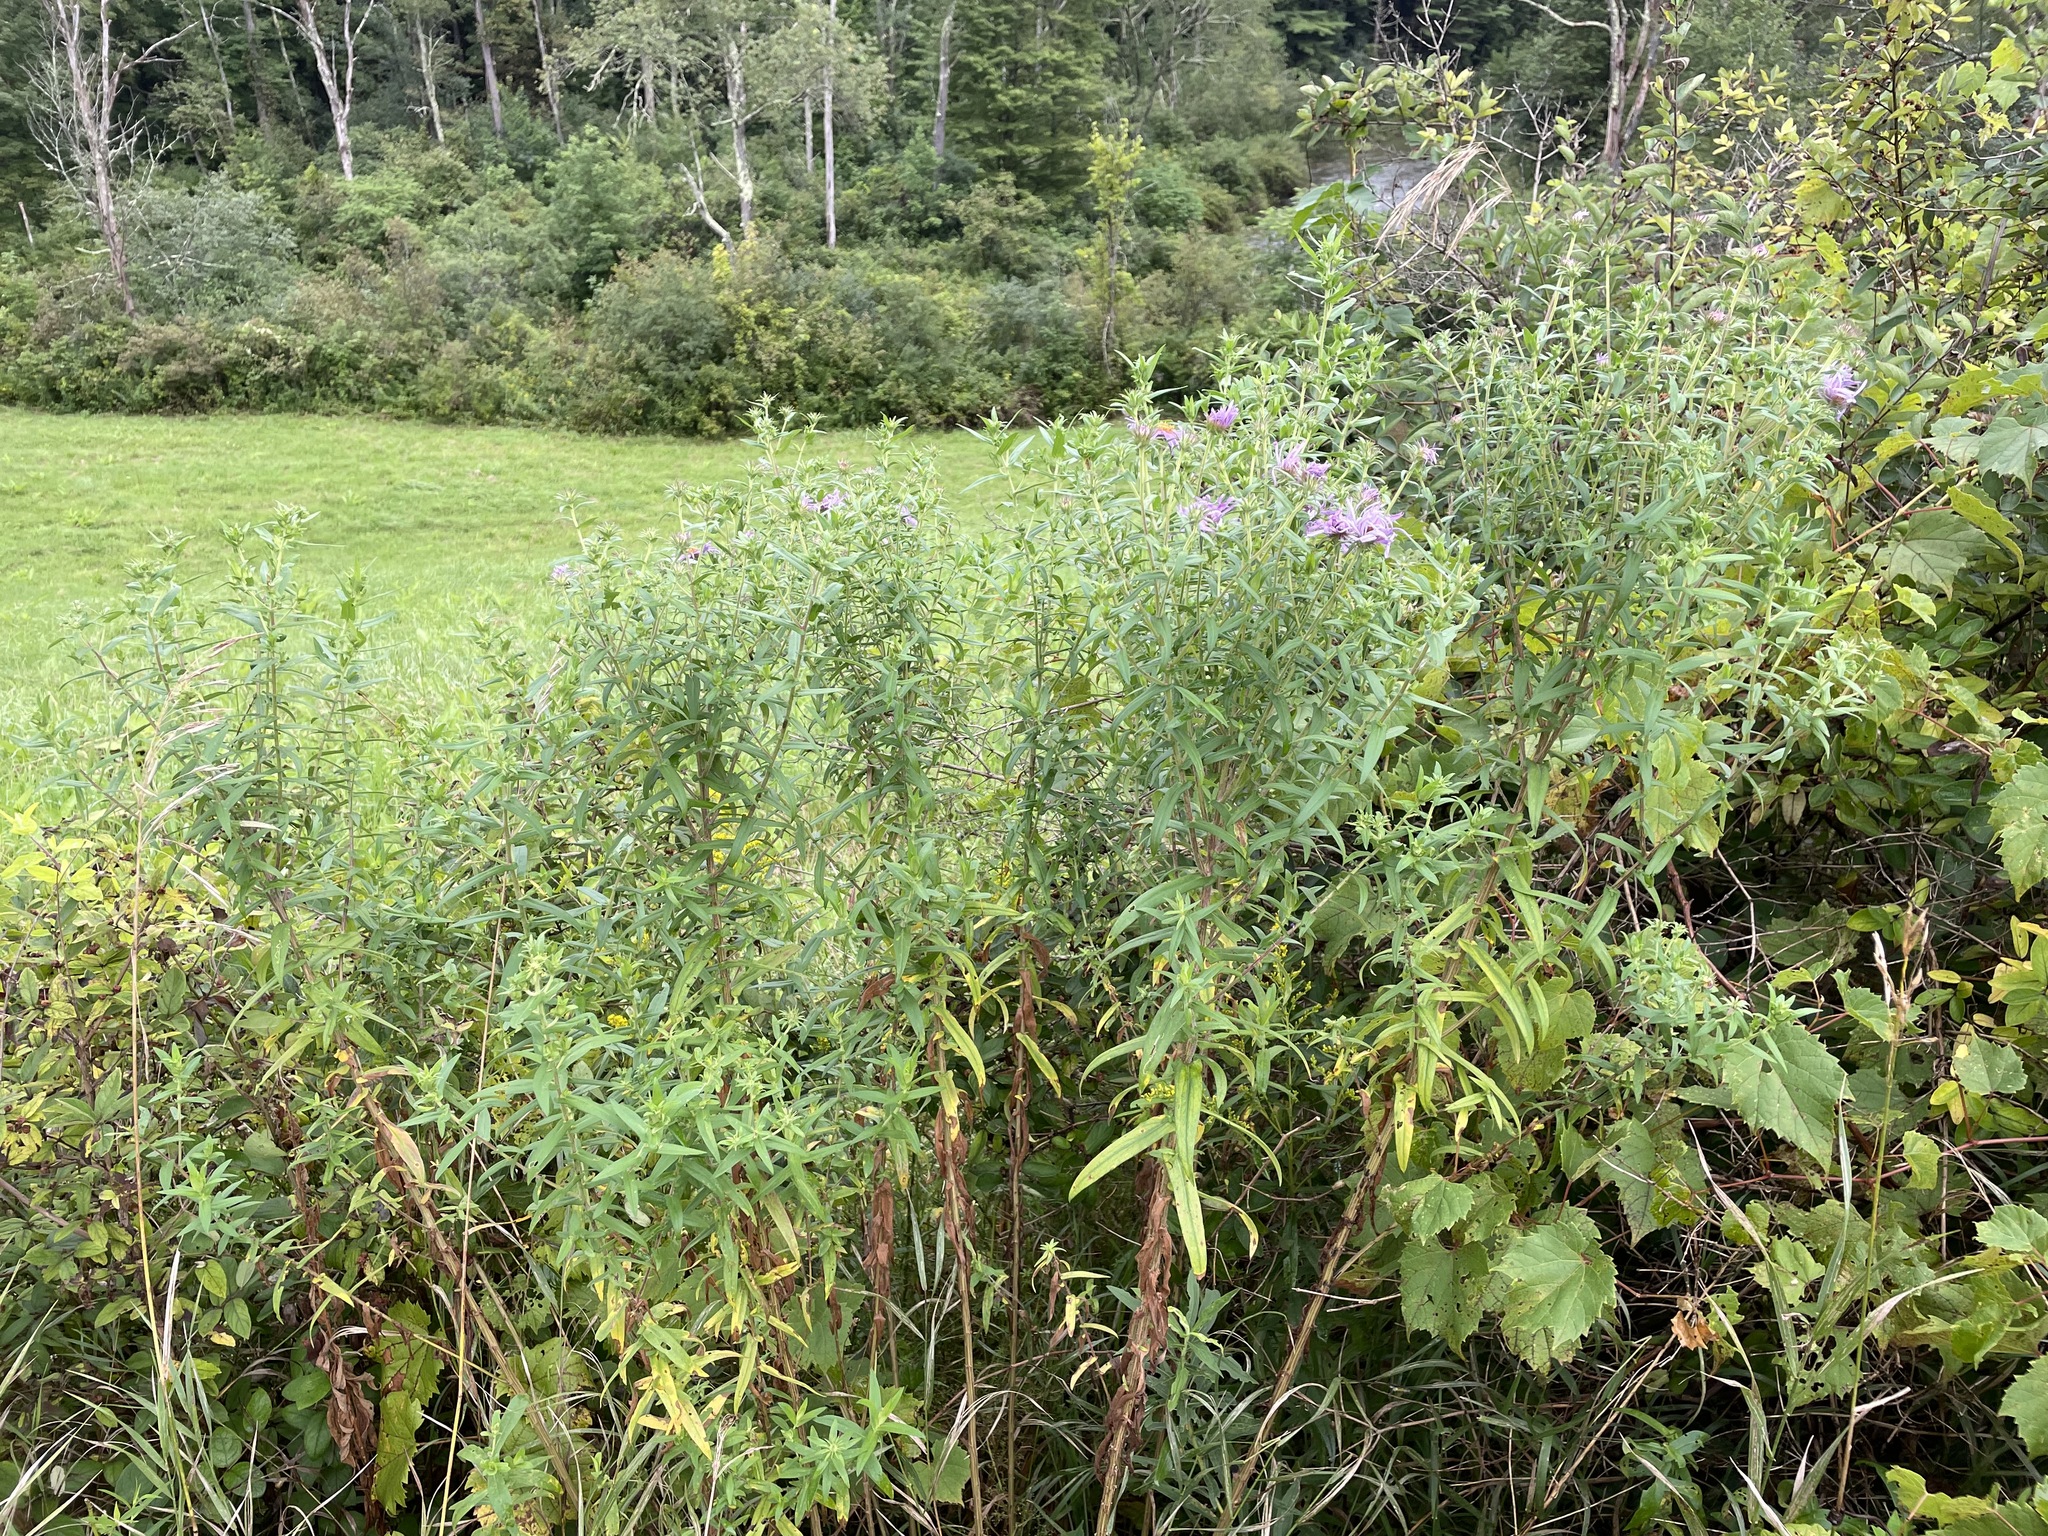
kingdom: Plantae
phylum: Tracheophyta
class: Magnoliopsida
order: Asterales
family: Asteraceae
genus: Symphyotrichum
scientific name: Symphyotrichum novae-angliae
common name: Michaelmas daisy
